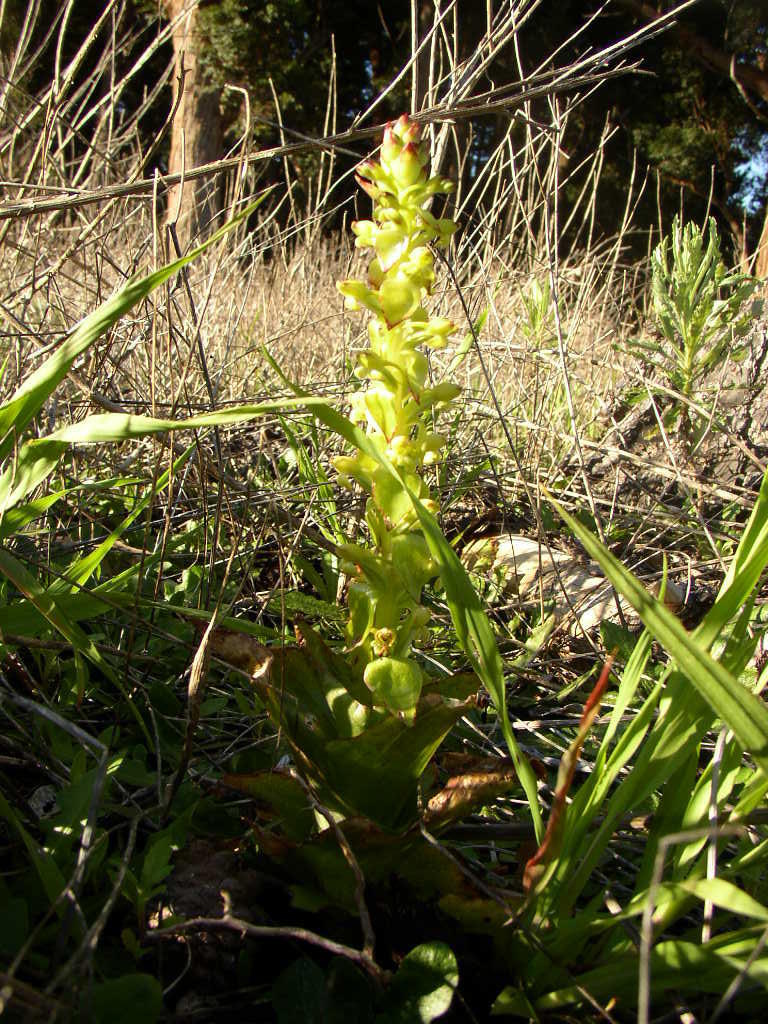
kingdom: Plantae
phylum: Tracheophyta
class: Liliopsida
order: Asparagales
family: Orchidaceae
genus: Satyrium
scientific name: Satyrium odorum
